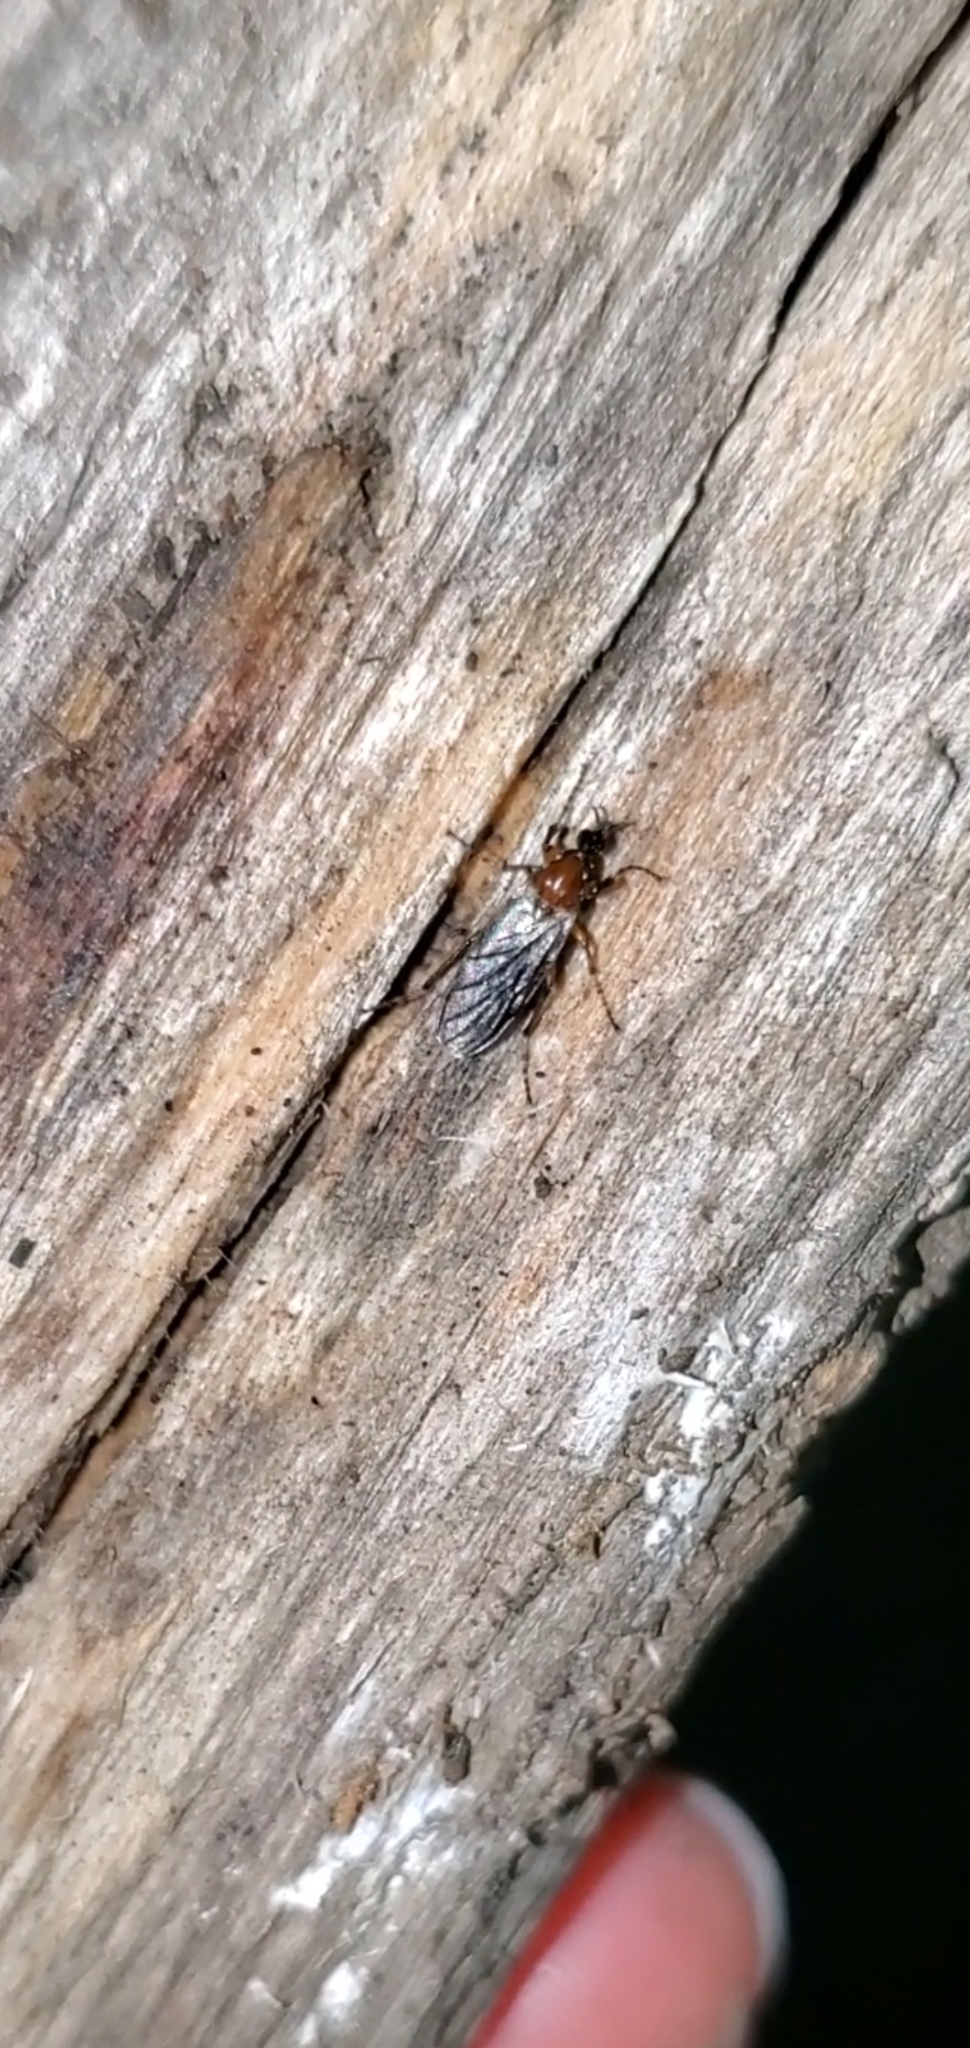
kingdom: Animalia
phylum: Arthropoda
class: Insecta
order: Diptera
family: Bibionidae
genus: Bibio
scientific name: Bibio articulatus
